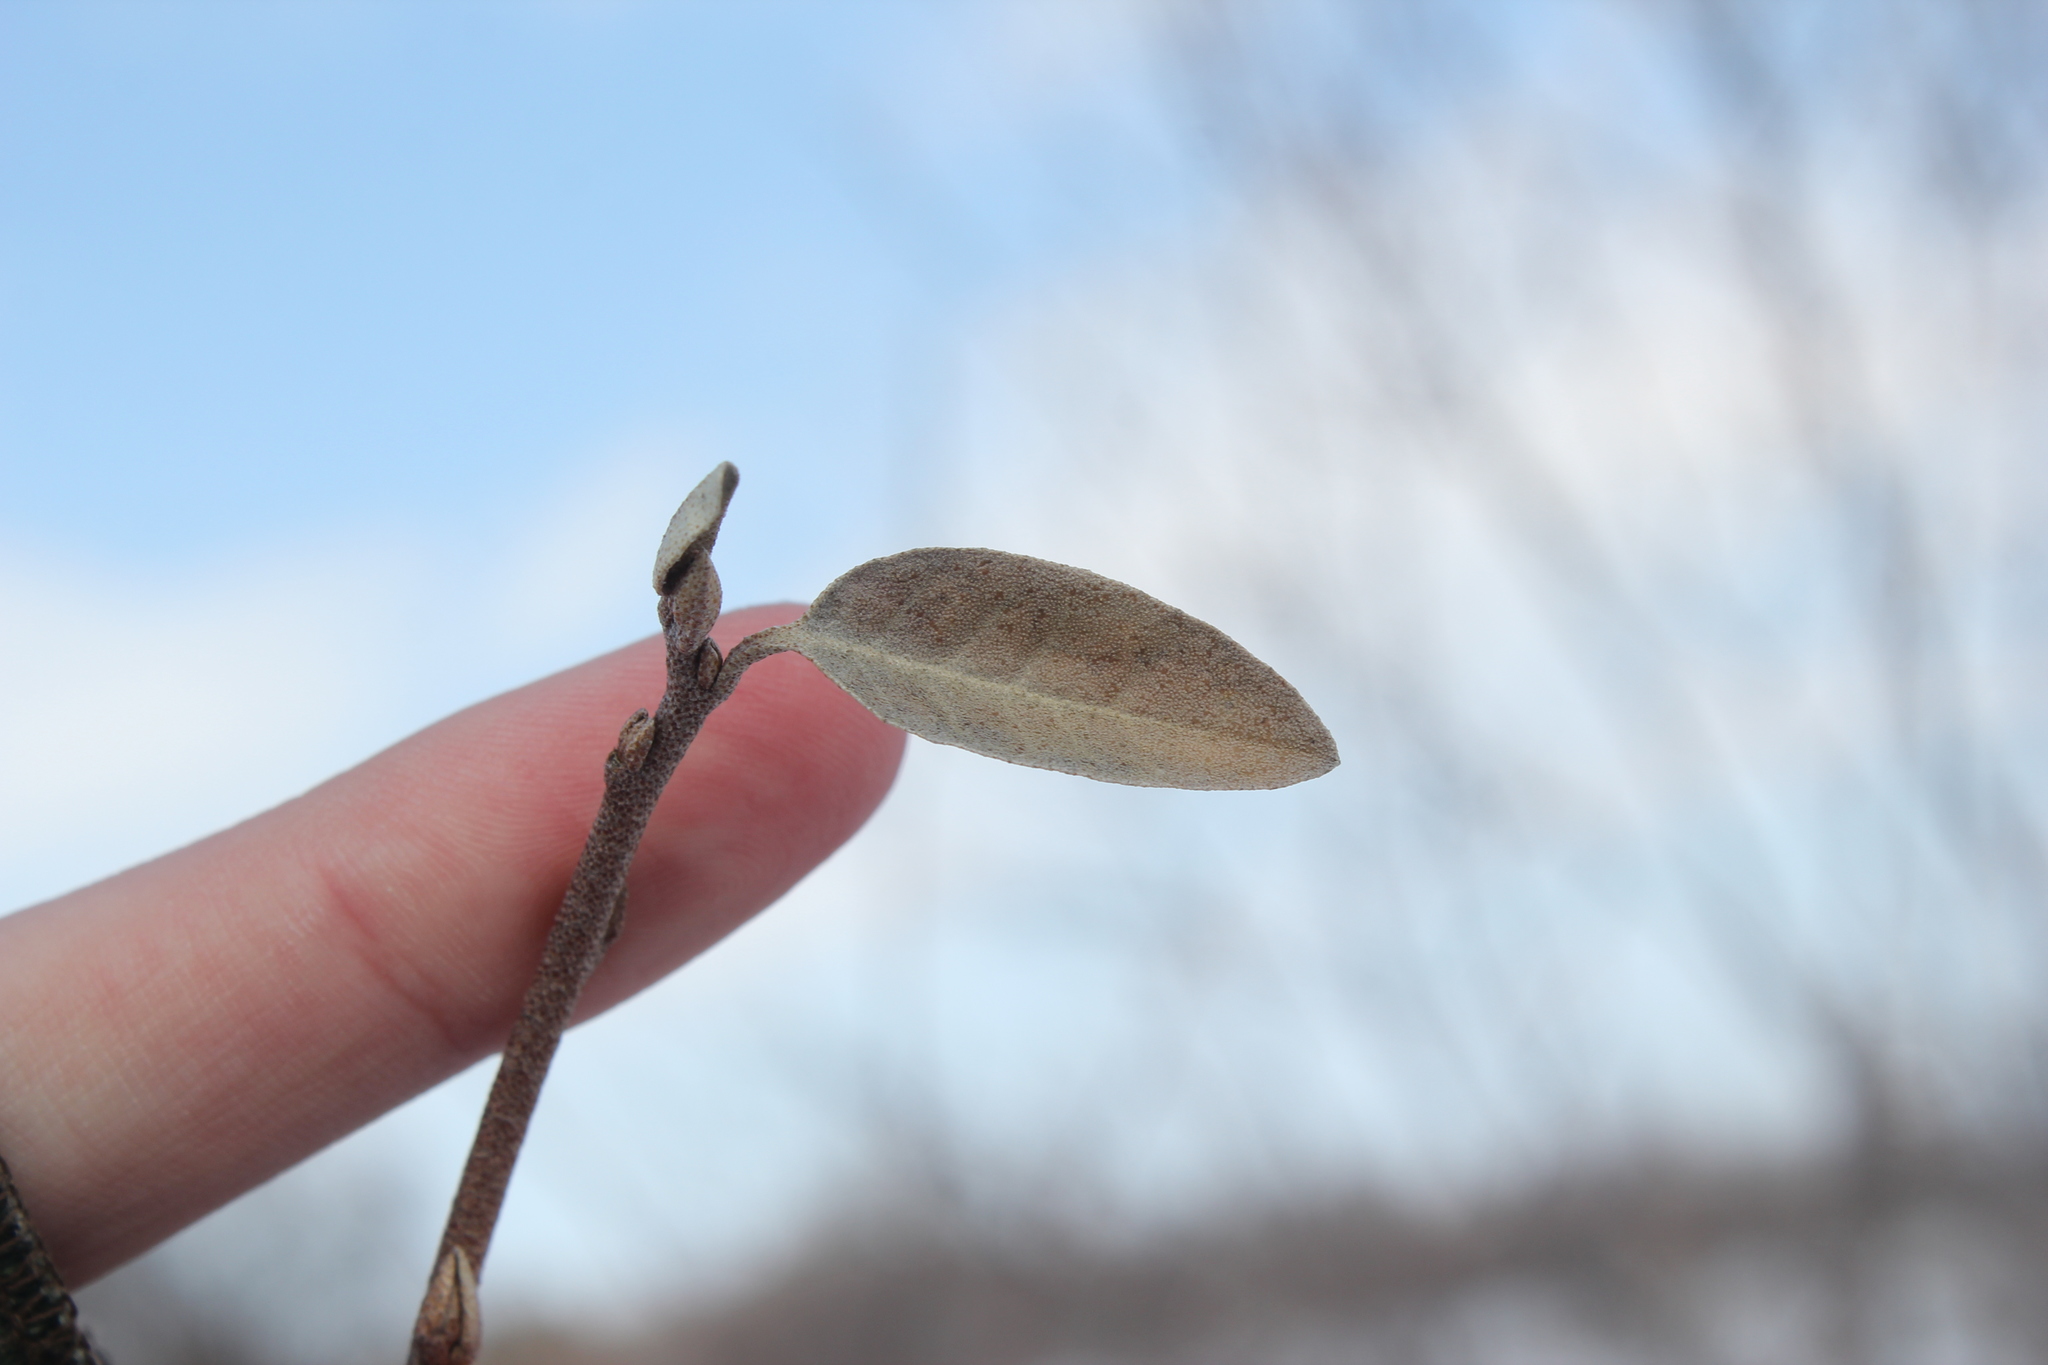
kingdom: Plantae
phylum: Tracheophyta
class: Magnoliopsida
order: Rosales
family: Elaeagnaceae
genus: Elaeagnus
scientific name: Elaeagnus umbellata
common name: Autumn olive
